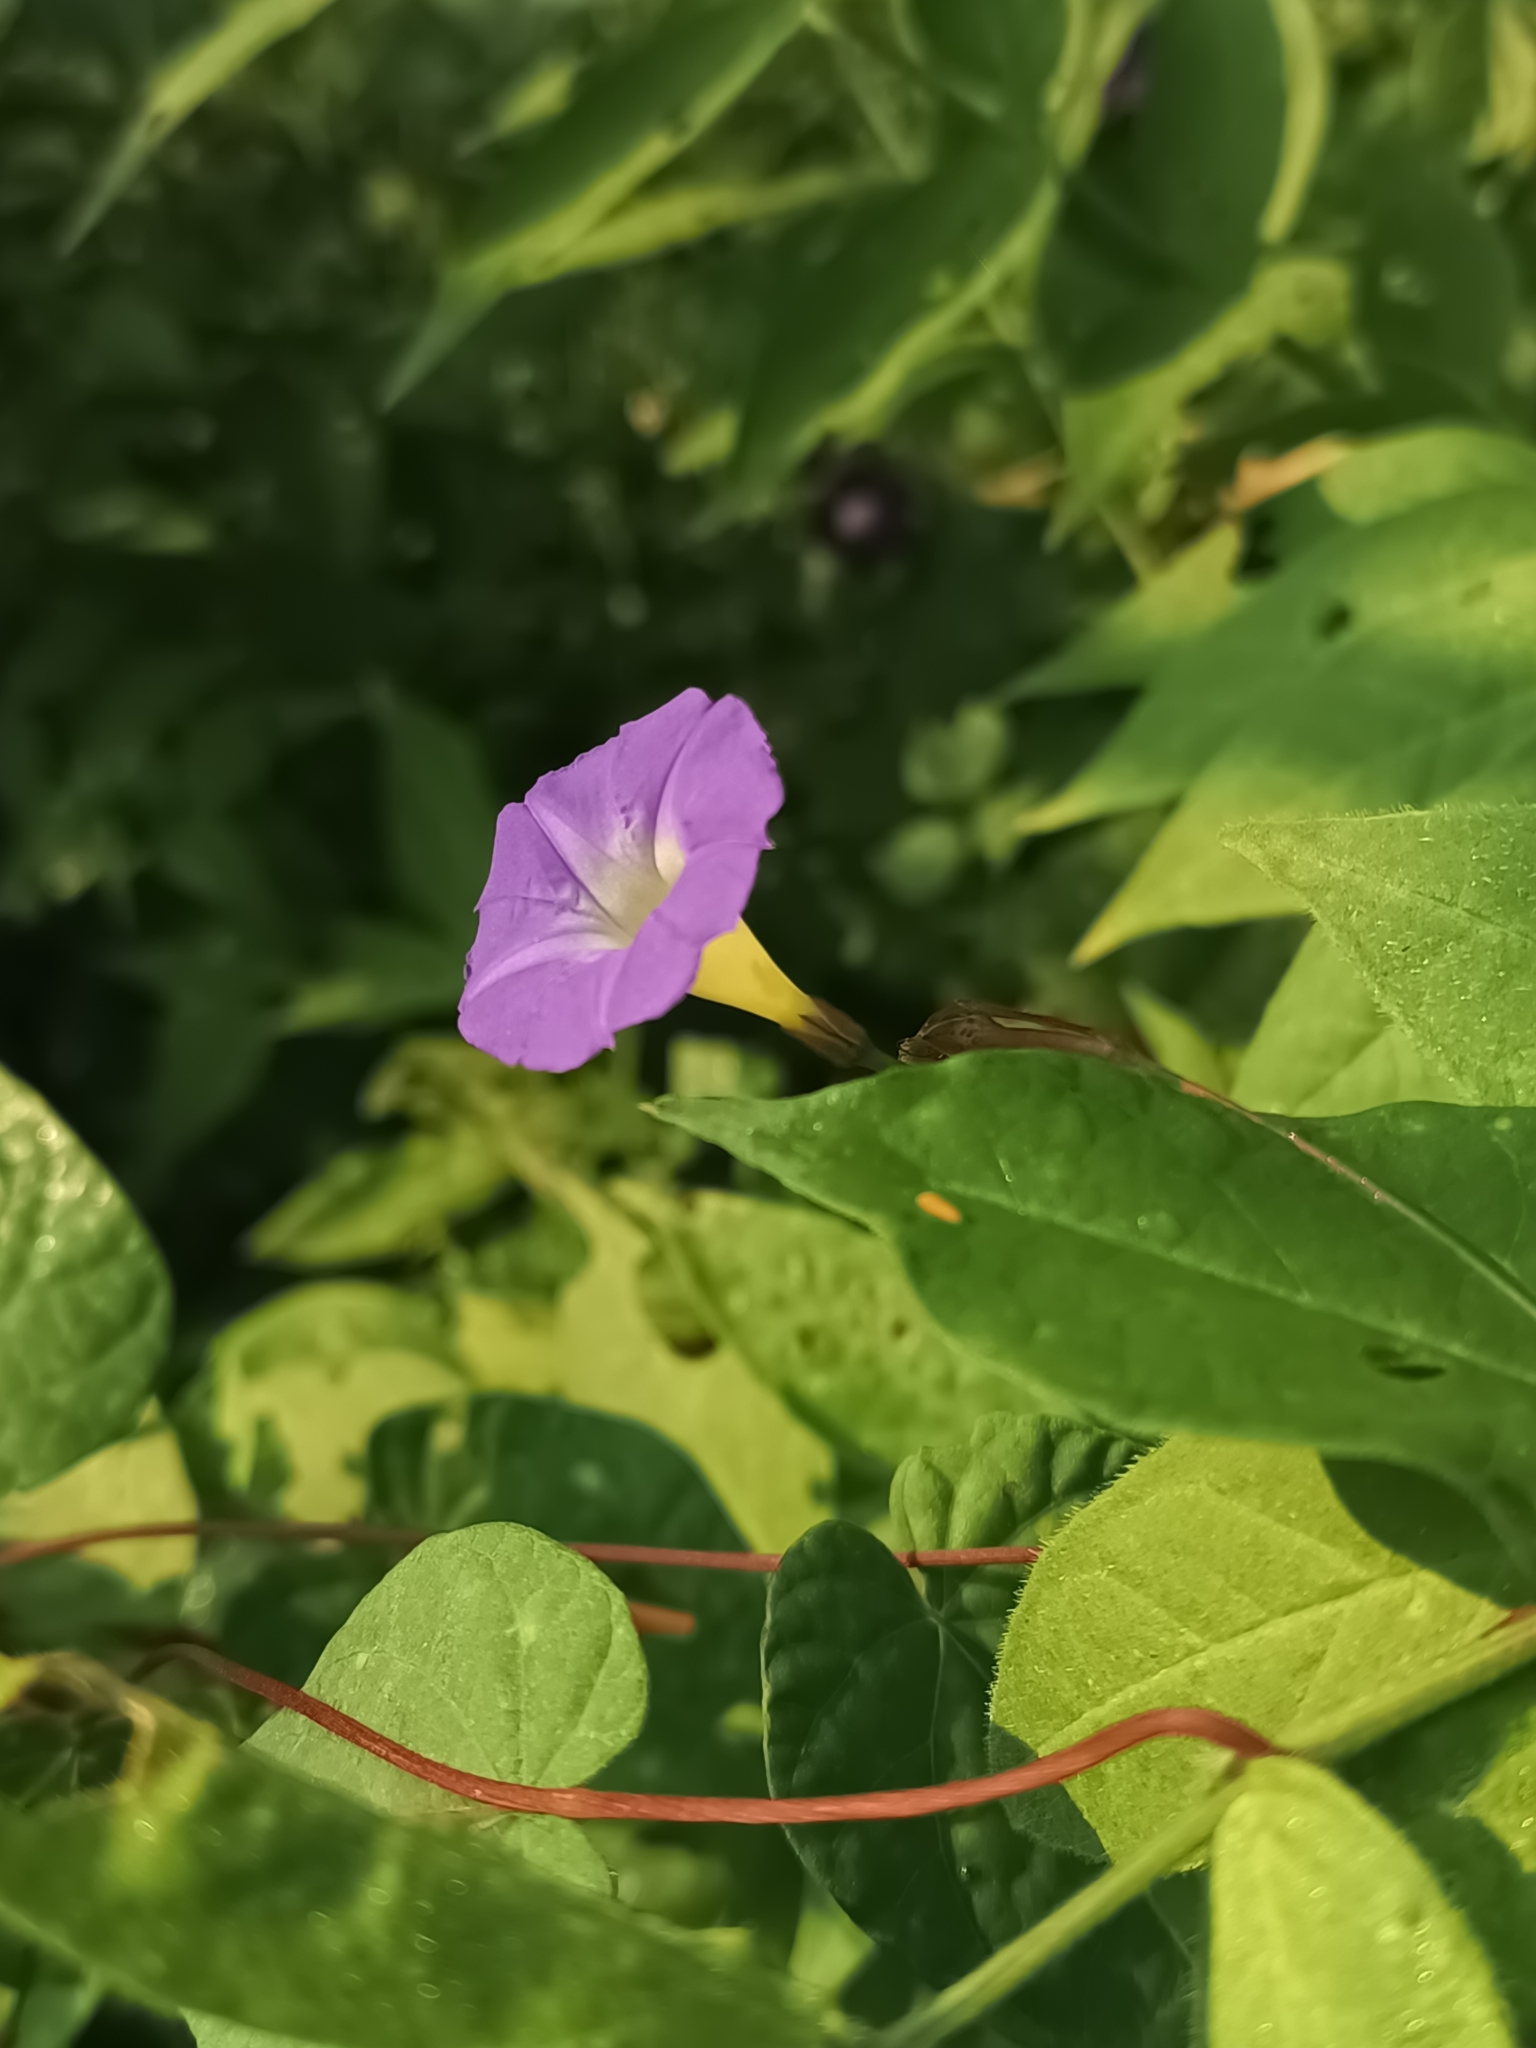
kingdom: Plantae
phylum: Tracheophyta
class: Magnoliopsida
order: Solanales
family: Convolvulaceae
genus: Ipomoea
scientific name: Ipomoea aristolochiifolia
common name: Aristolochia-leaved morning-glory
